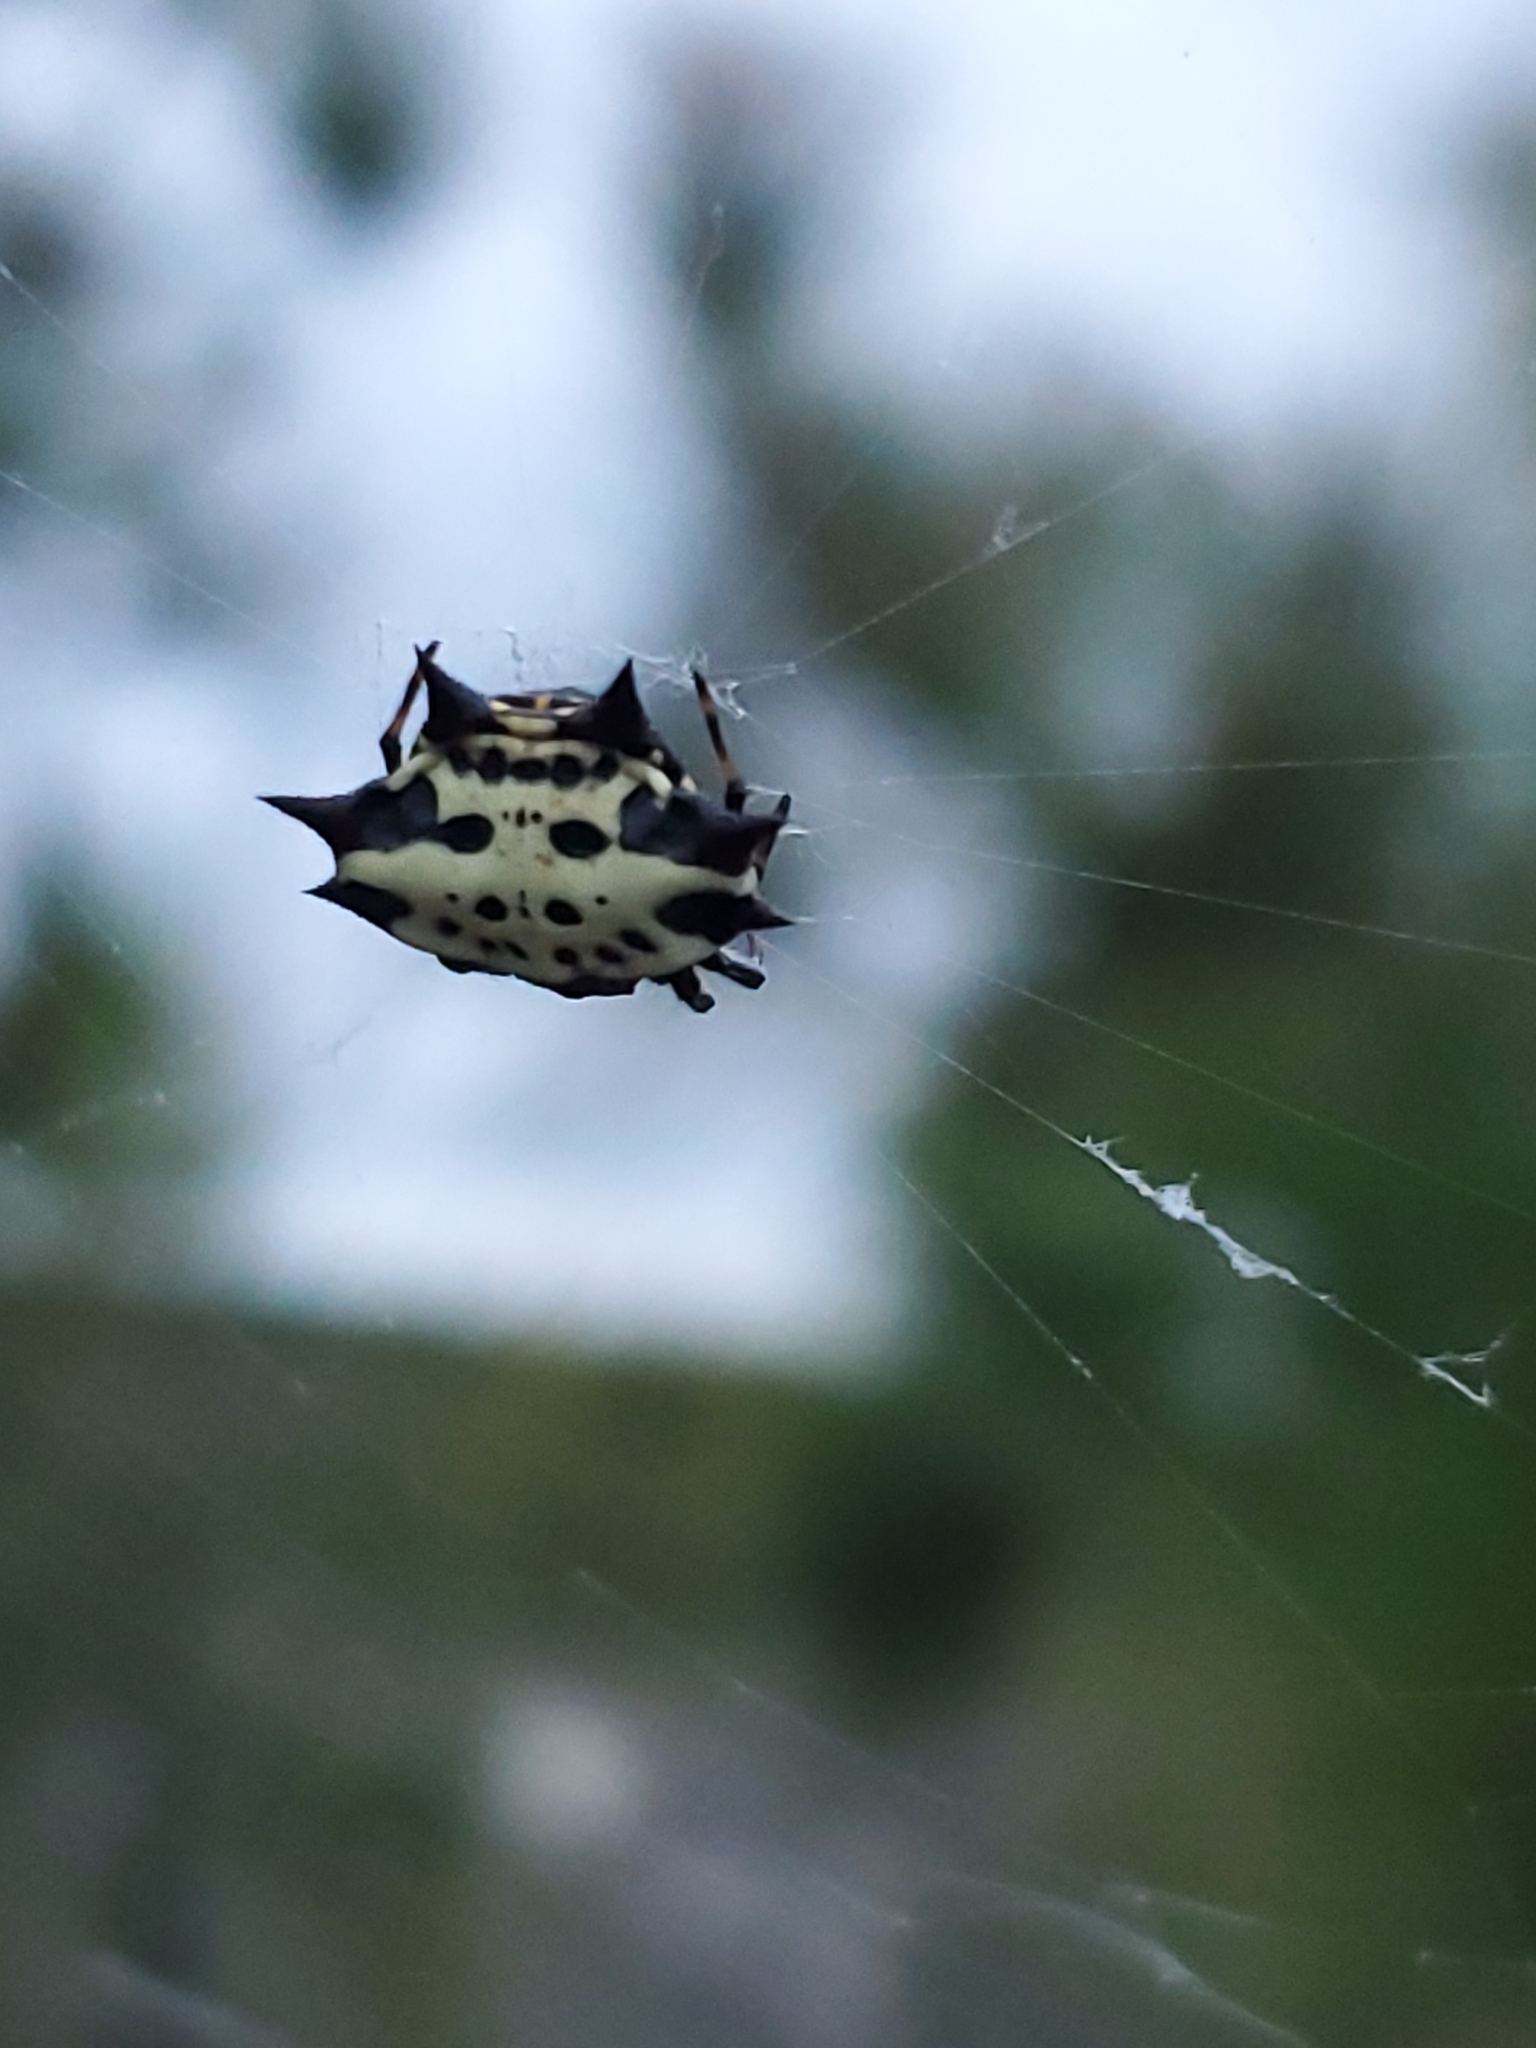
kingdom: Animalia
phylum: Arthropoda
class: Arachnida
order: Araneae
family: Araneidae
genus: Gasteracantha
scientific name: Gasteracantha cancriformis
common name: Orb weavers
